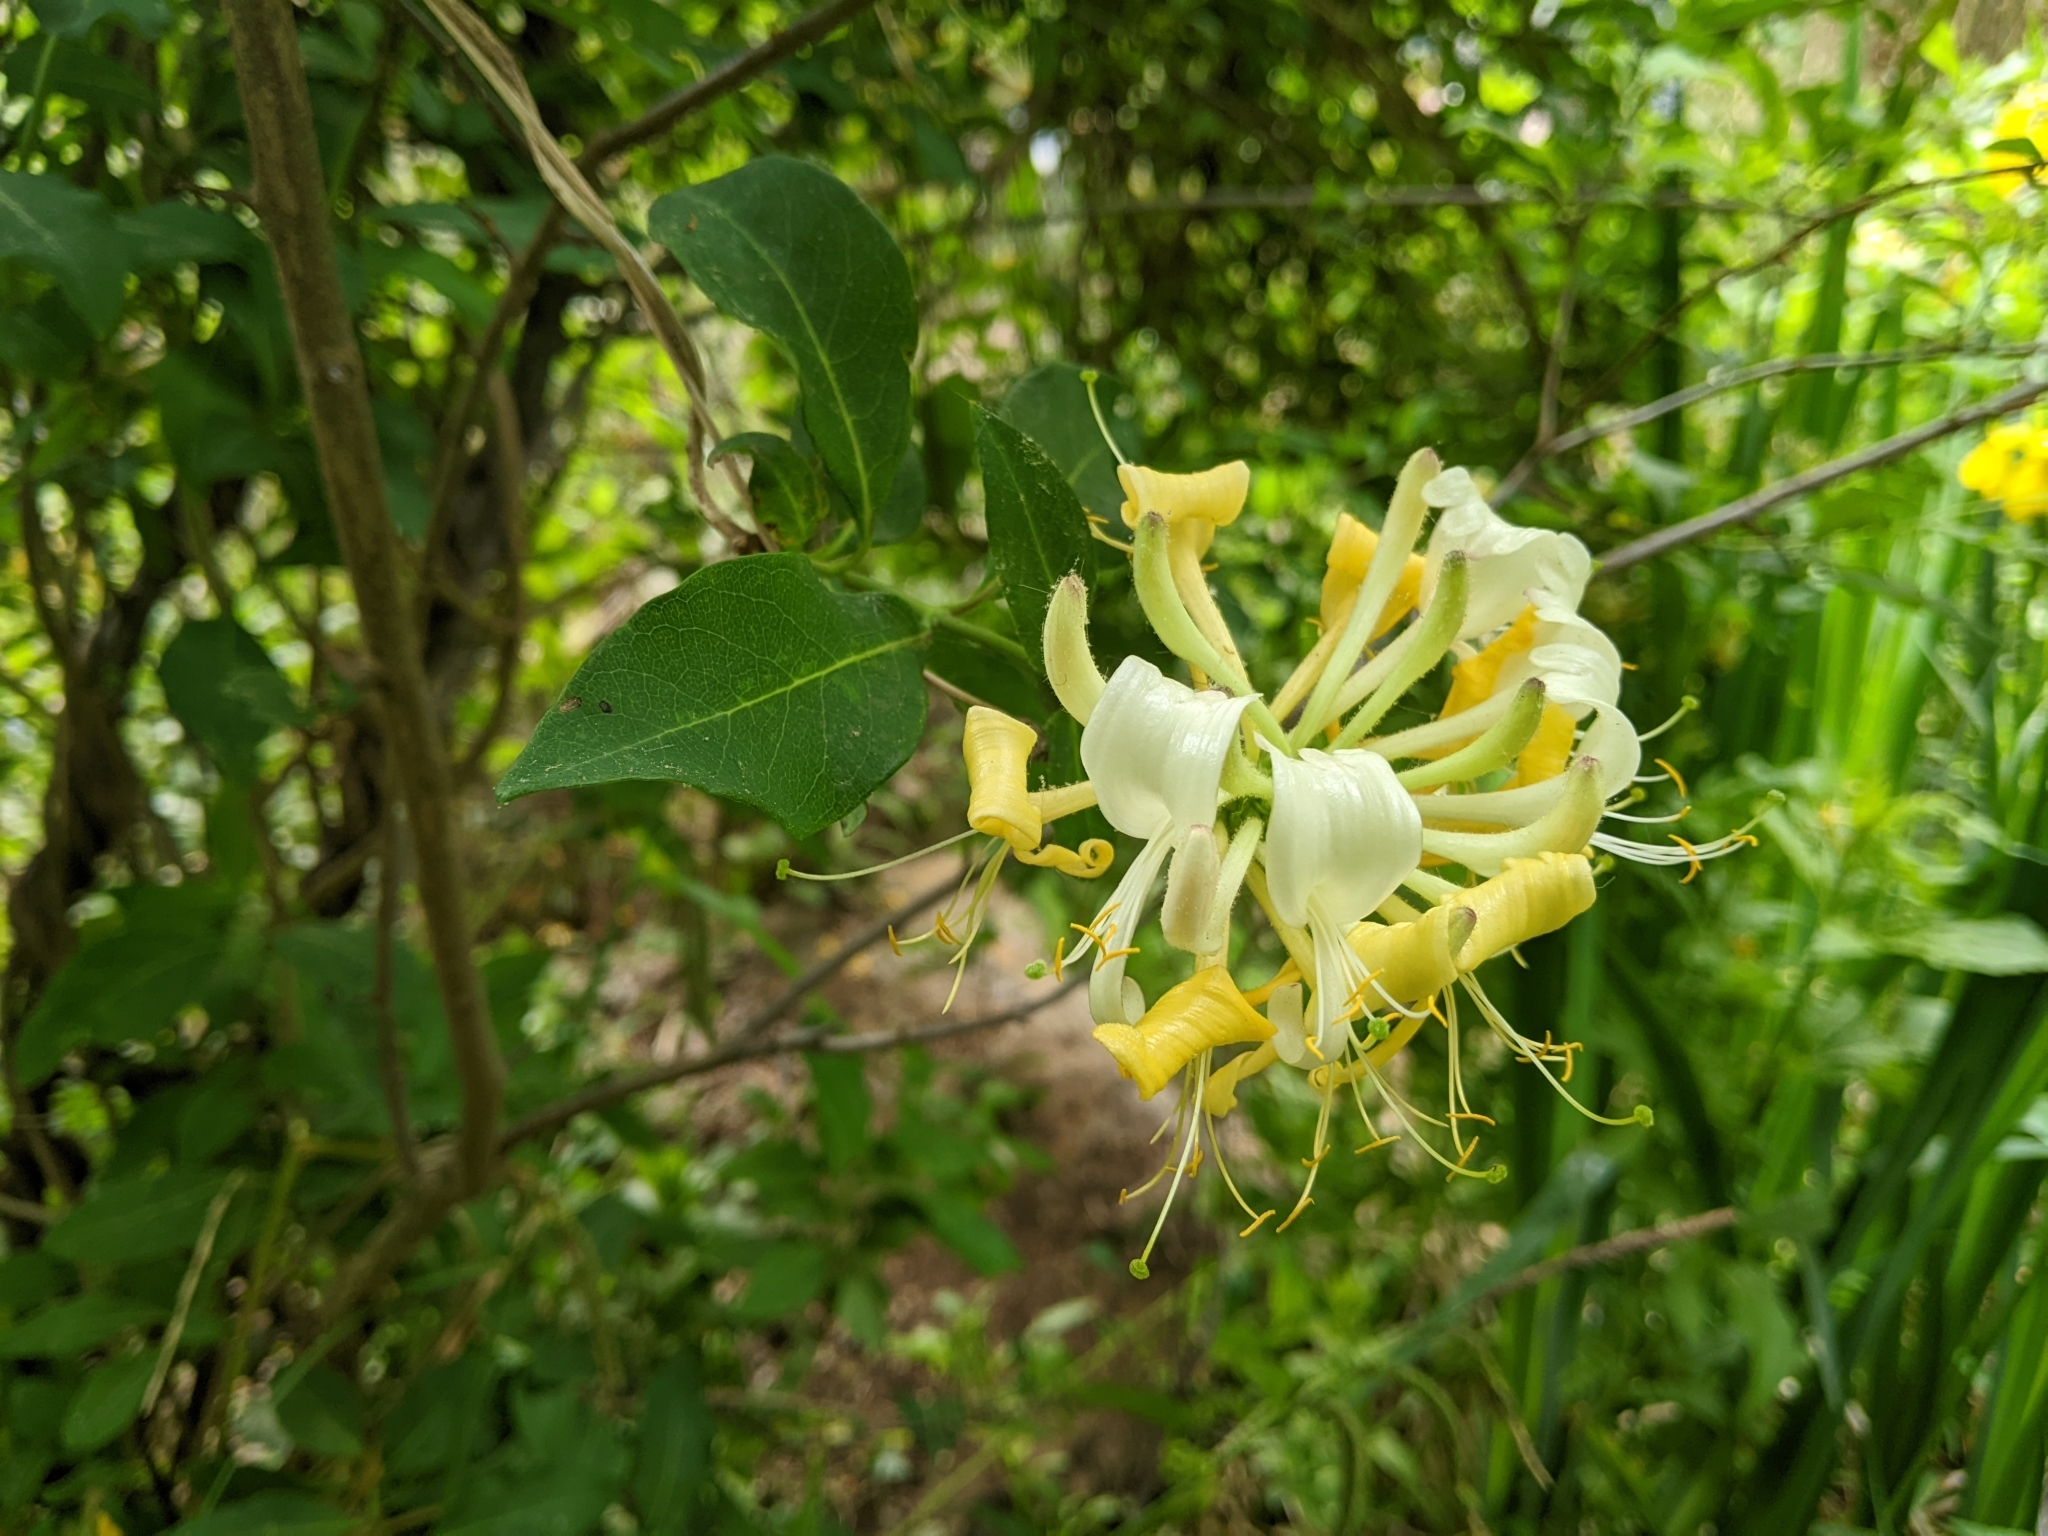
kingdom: Plantae
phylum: Tracheophyta
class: Magnoliopsida
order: Dipsacales
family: Caprifoliaceae
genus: Lonicera
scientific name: Lonicera periclymenum
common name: European honeysuckle
